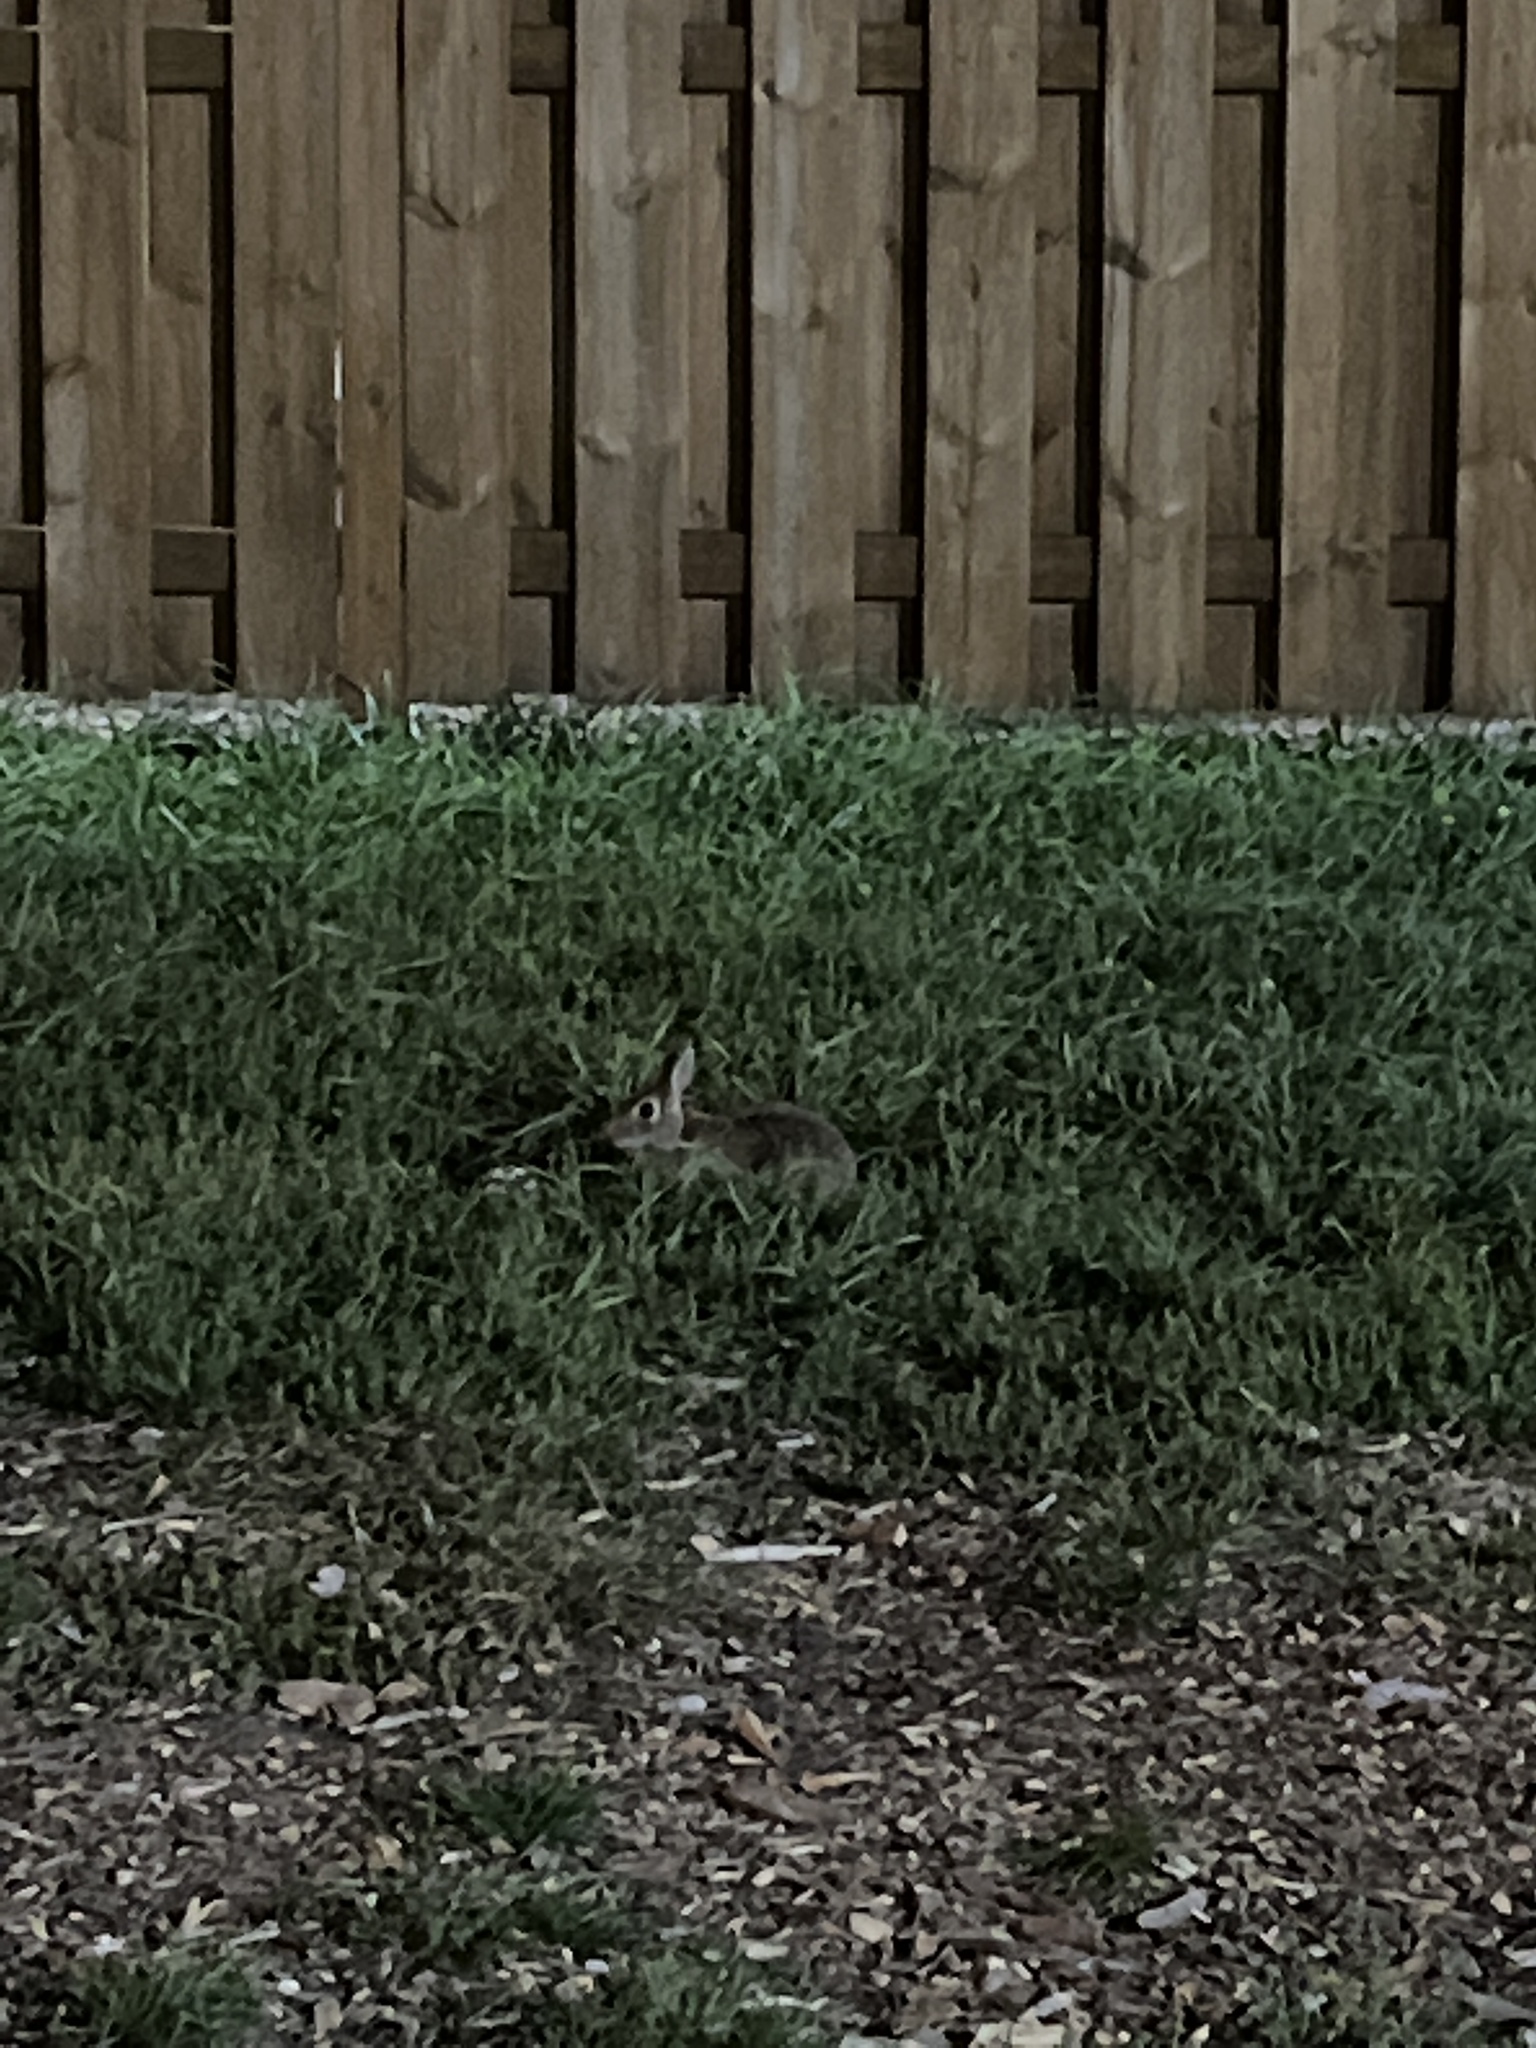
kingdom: Animalia
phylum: Chordata
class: Mammalia
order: Lagomorpha
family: Leporidae
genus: Sylvilagus
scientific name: Sylvilagus floridanus
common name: Eastern cottontail
